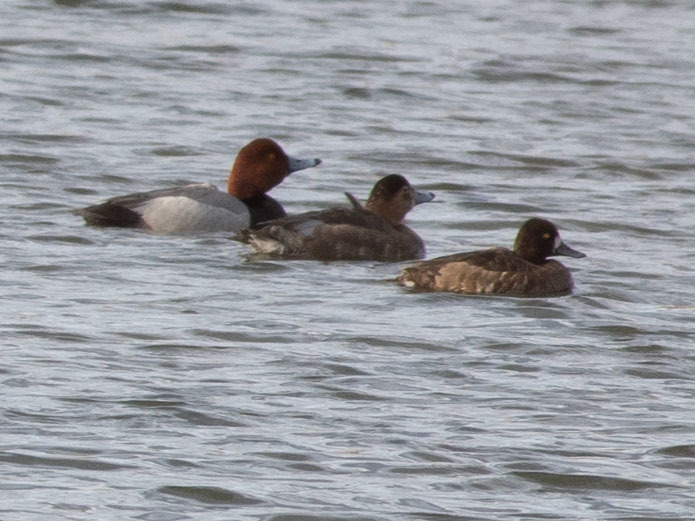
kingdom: Animalia
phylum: Chordata
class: Aves
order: Anseriformes
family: Anatidae
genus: Aythya
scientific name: Aythya affinis
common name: Lesser scaup
